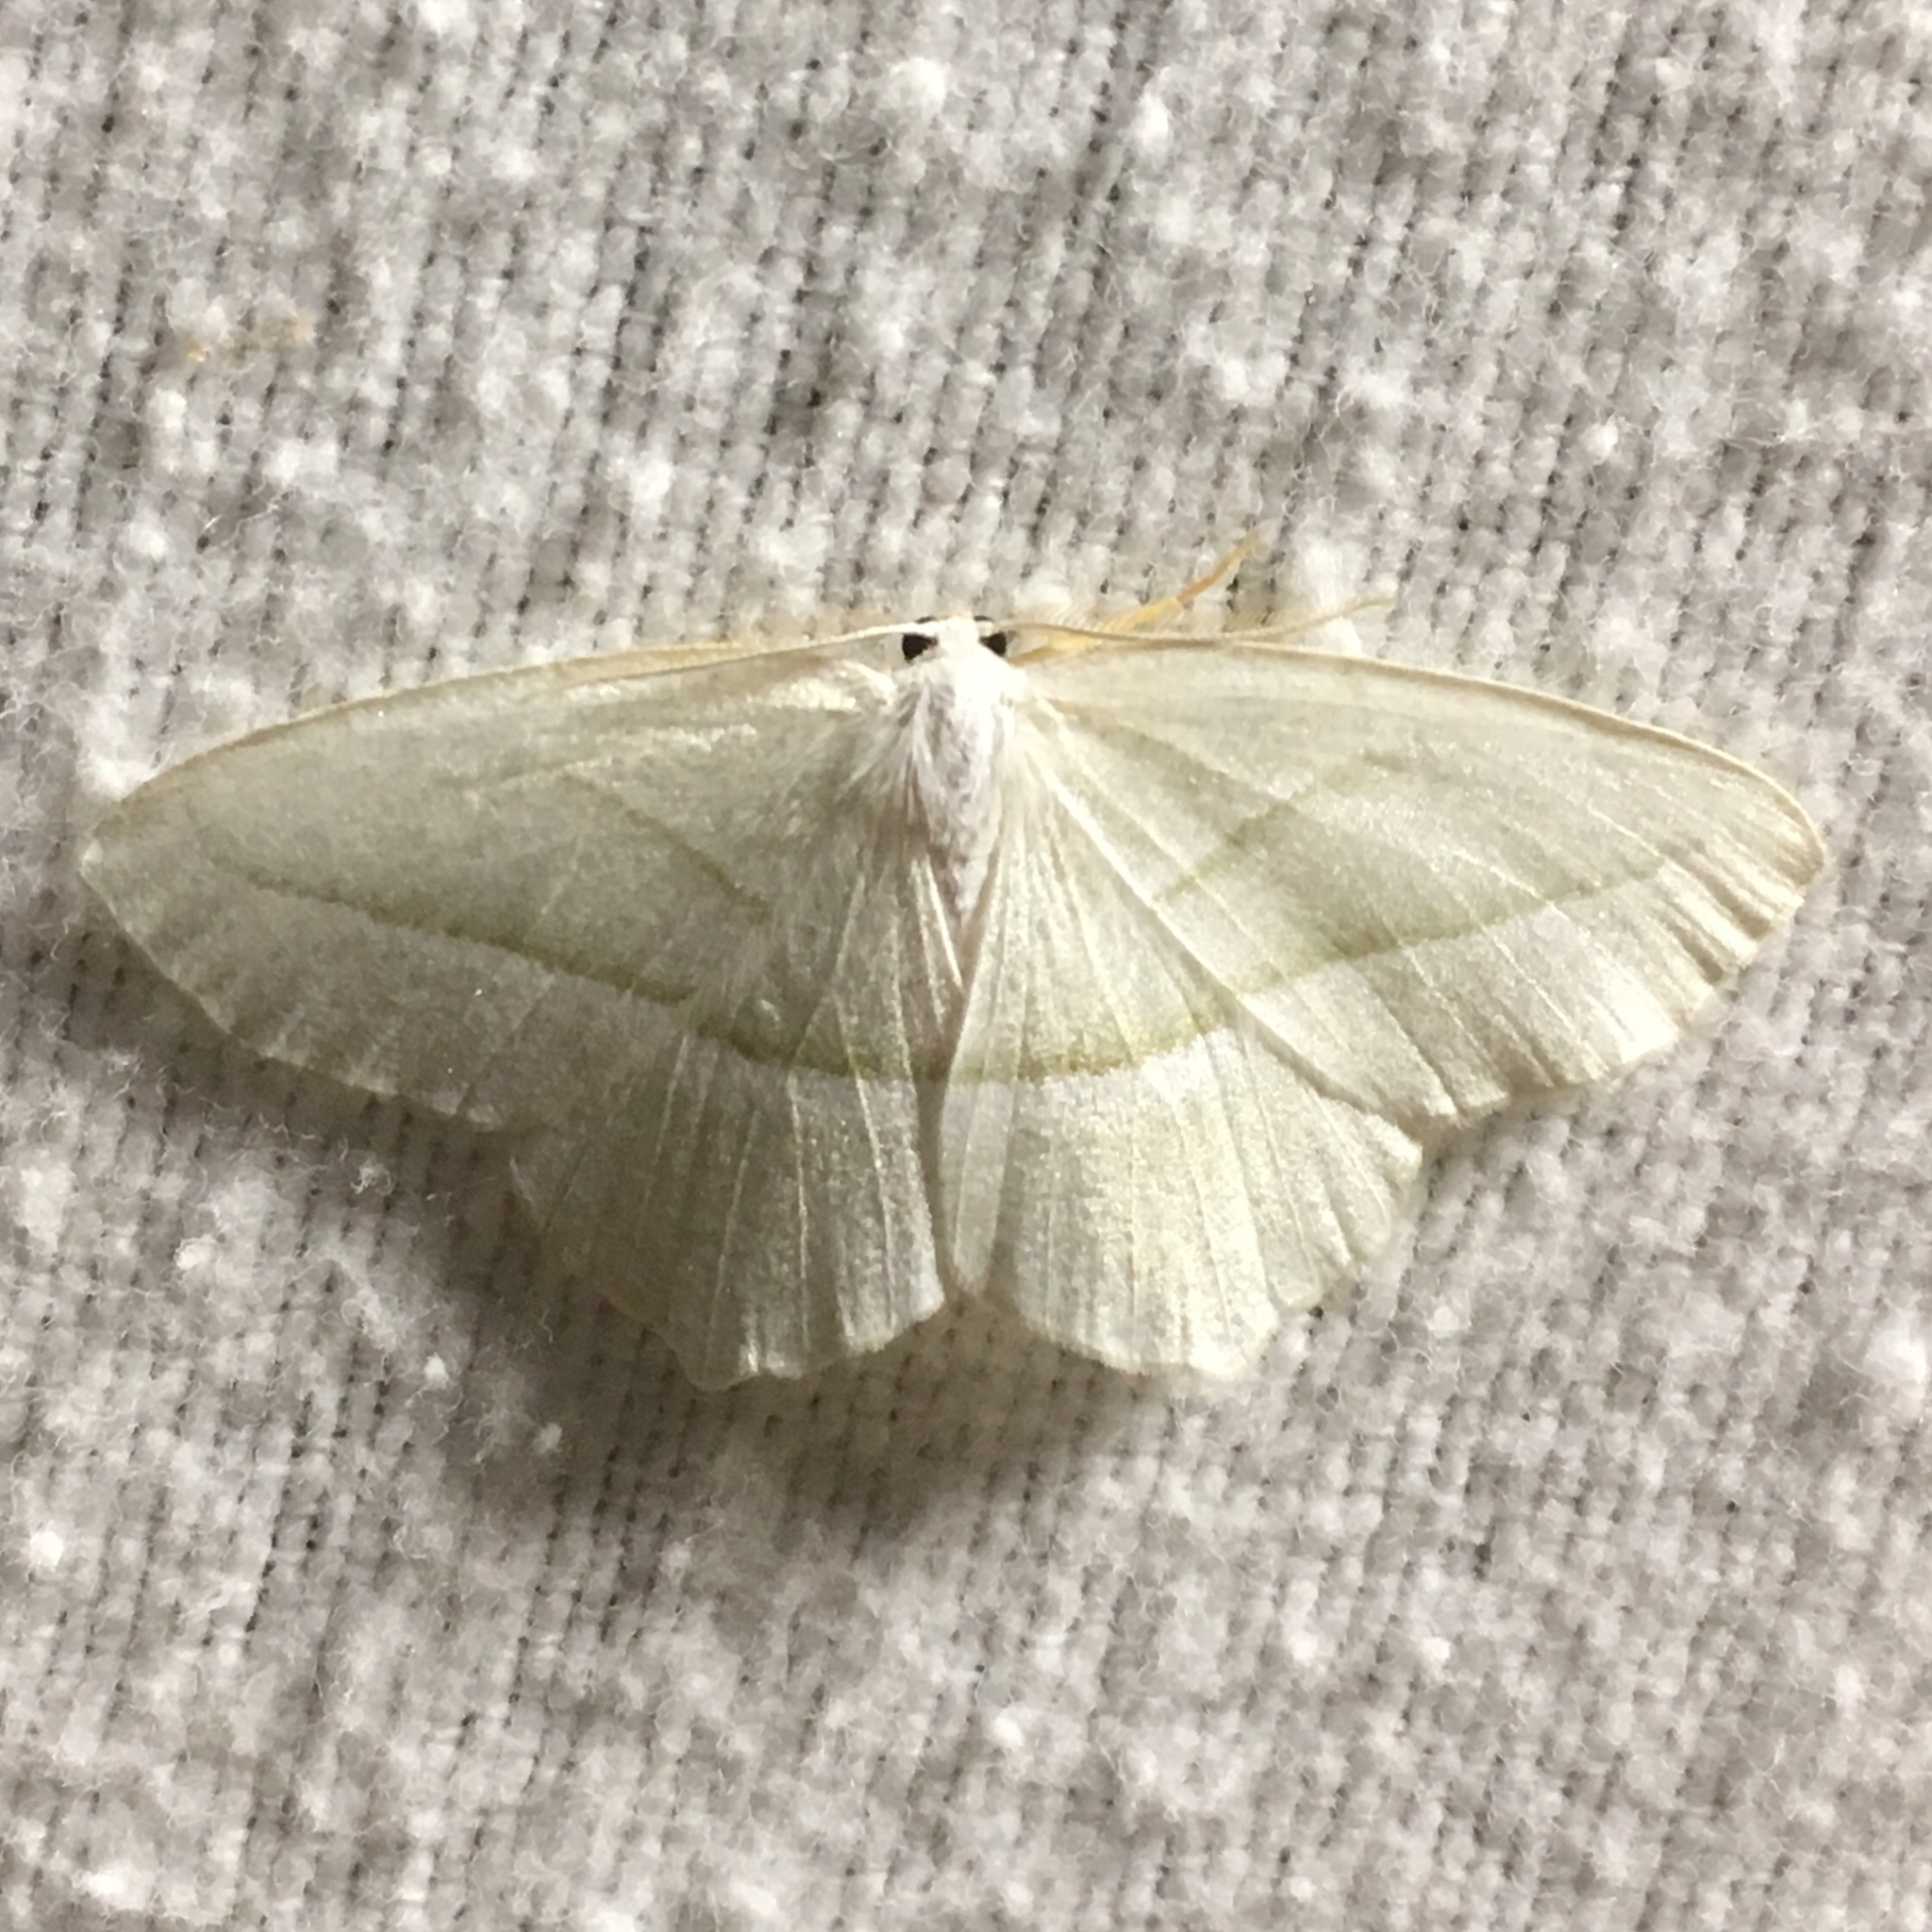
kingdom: Animalia
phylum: Arthropoda
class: Insecta
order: Lepidoptera
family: Geometridae
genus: Campaea
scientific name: Campaea perlata
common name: Fringed looper
